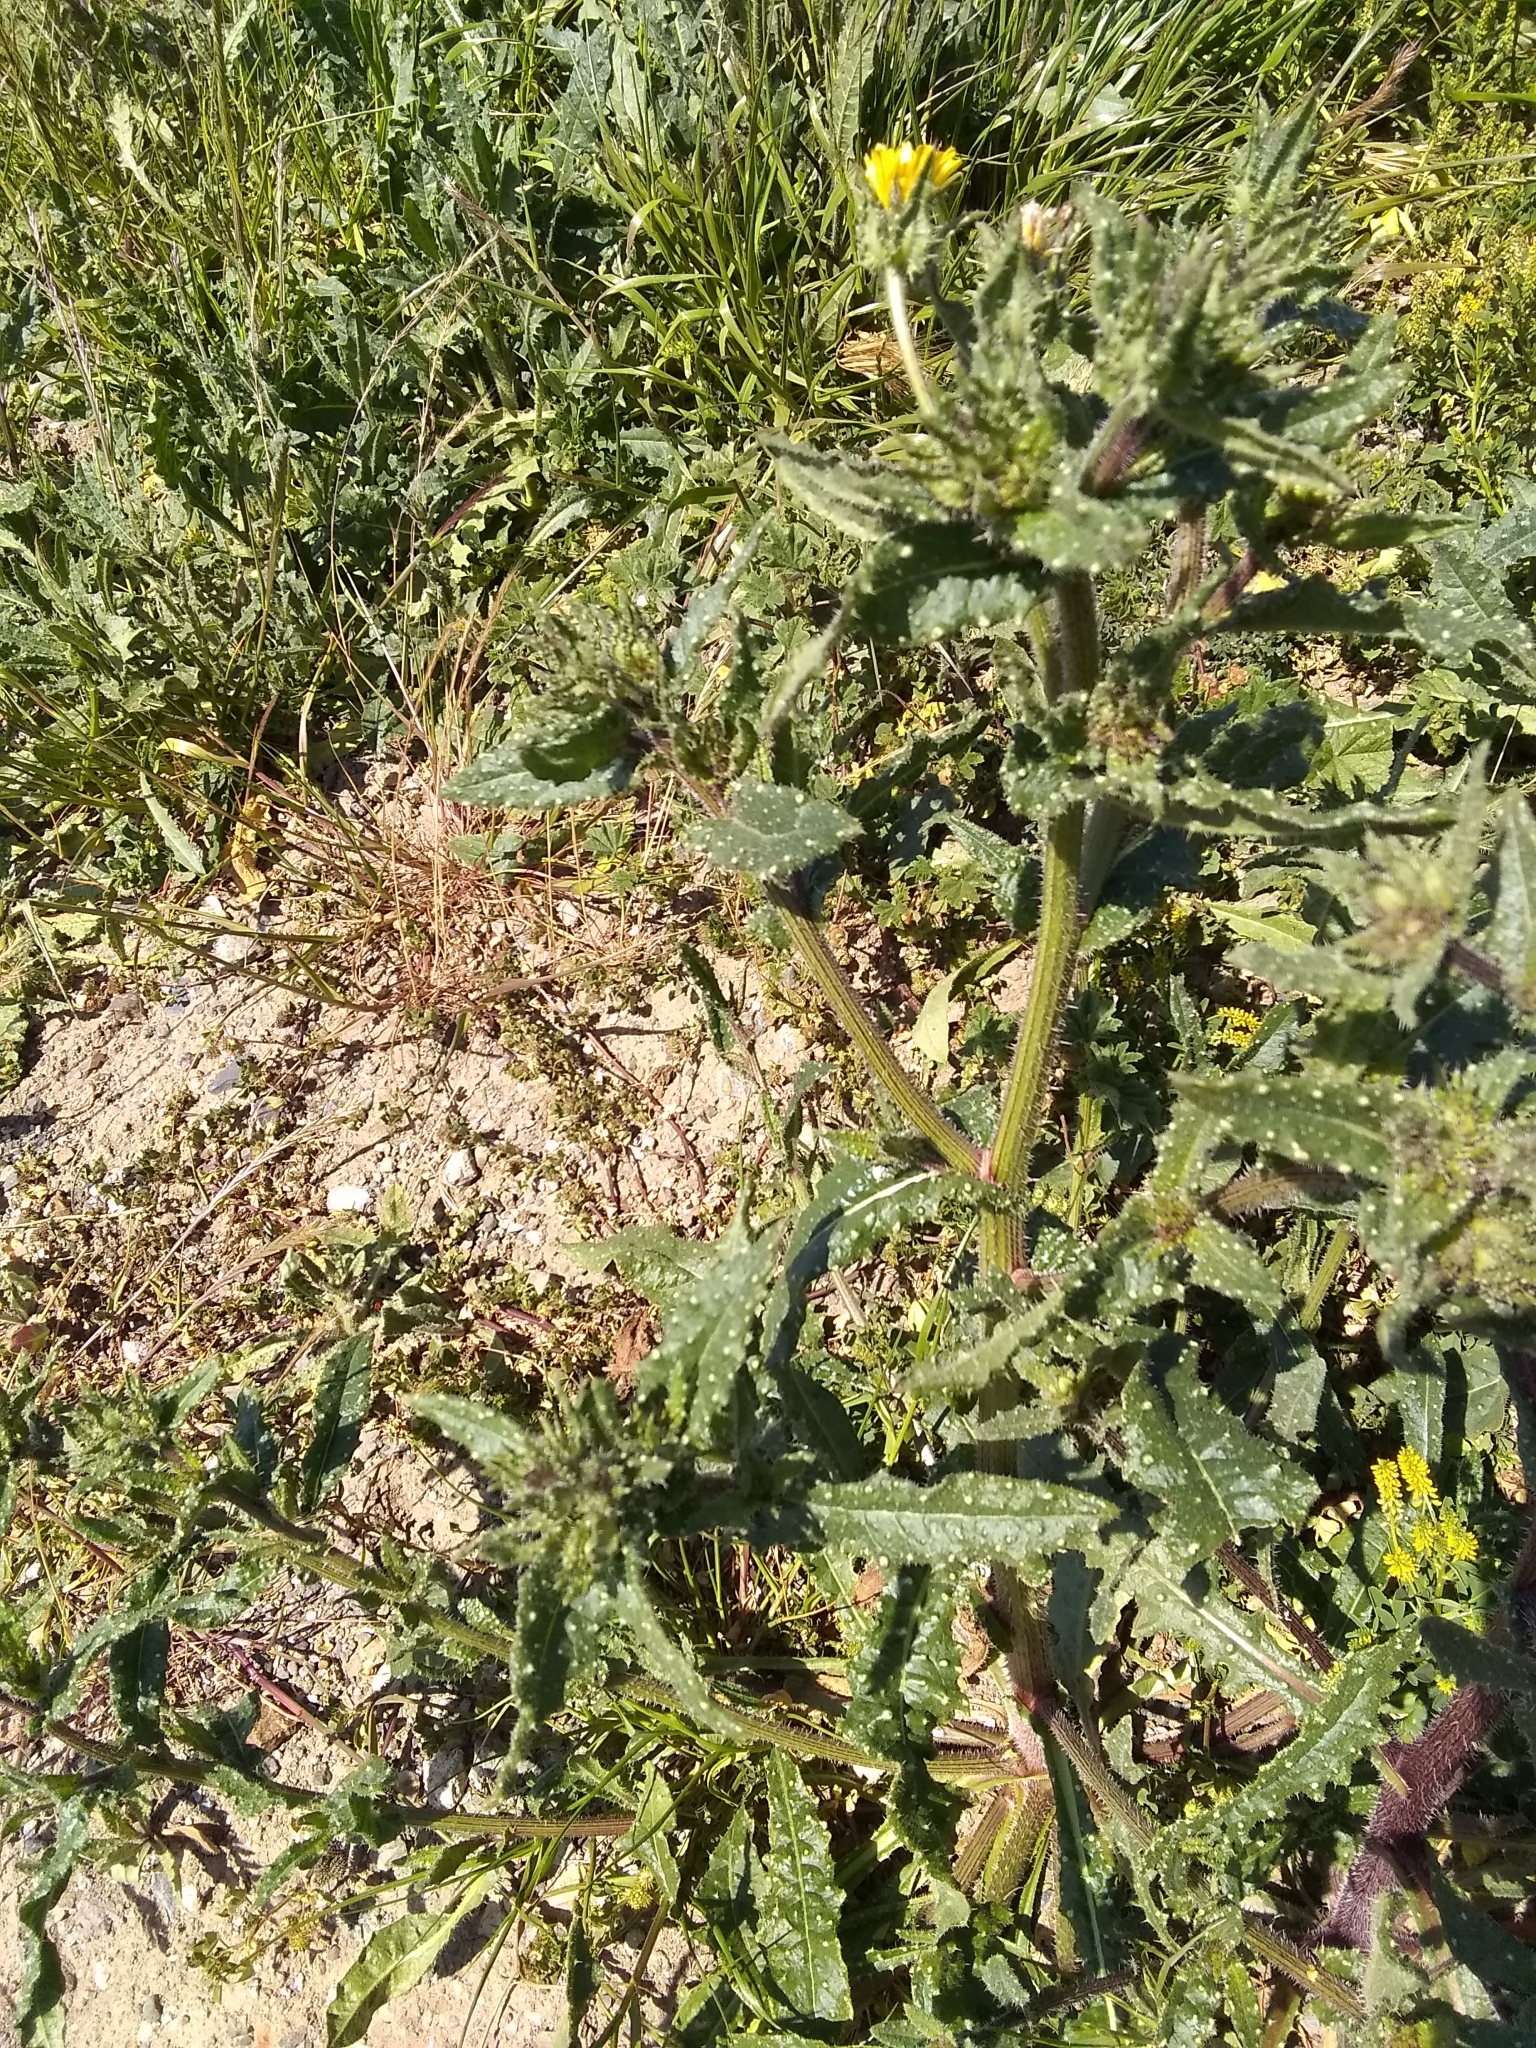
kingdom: Plantae
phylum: Tracheophyta
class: Magnoliopsida
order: Asterales
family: Asteraceae
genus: Helminthotheca
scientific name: Helminthotheca echioides
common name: Ox-tongue
